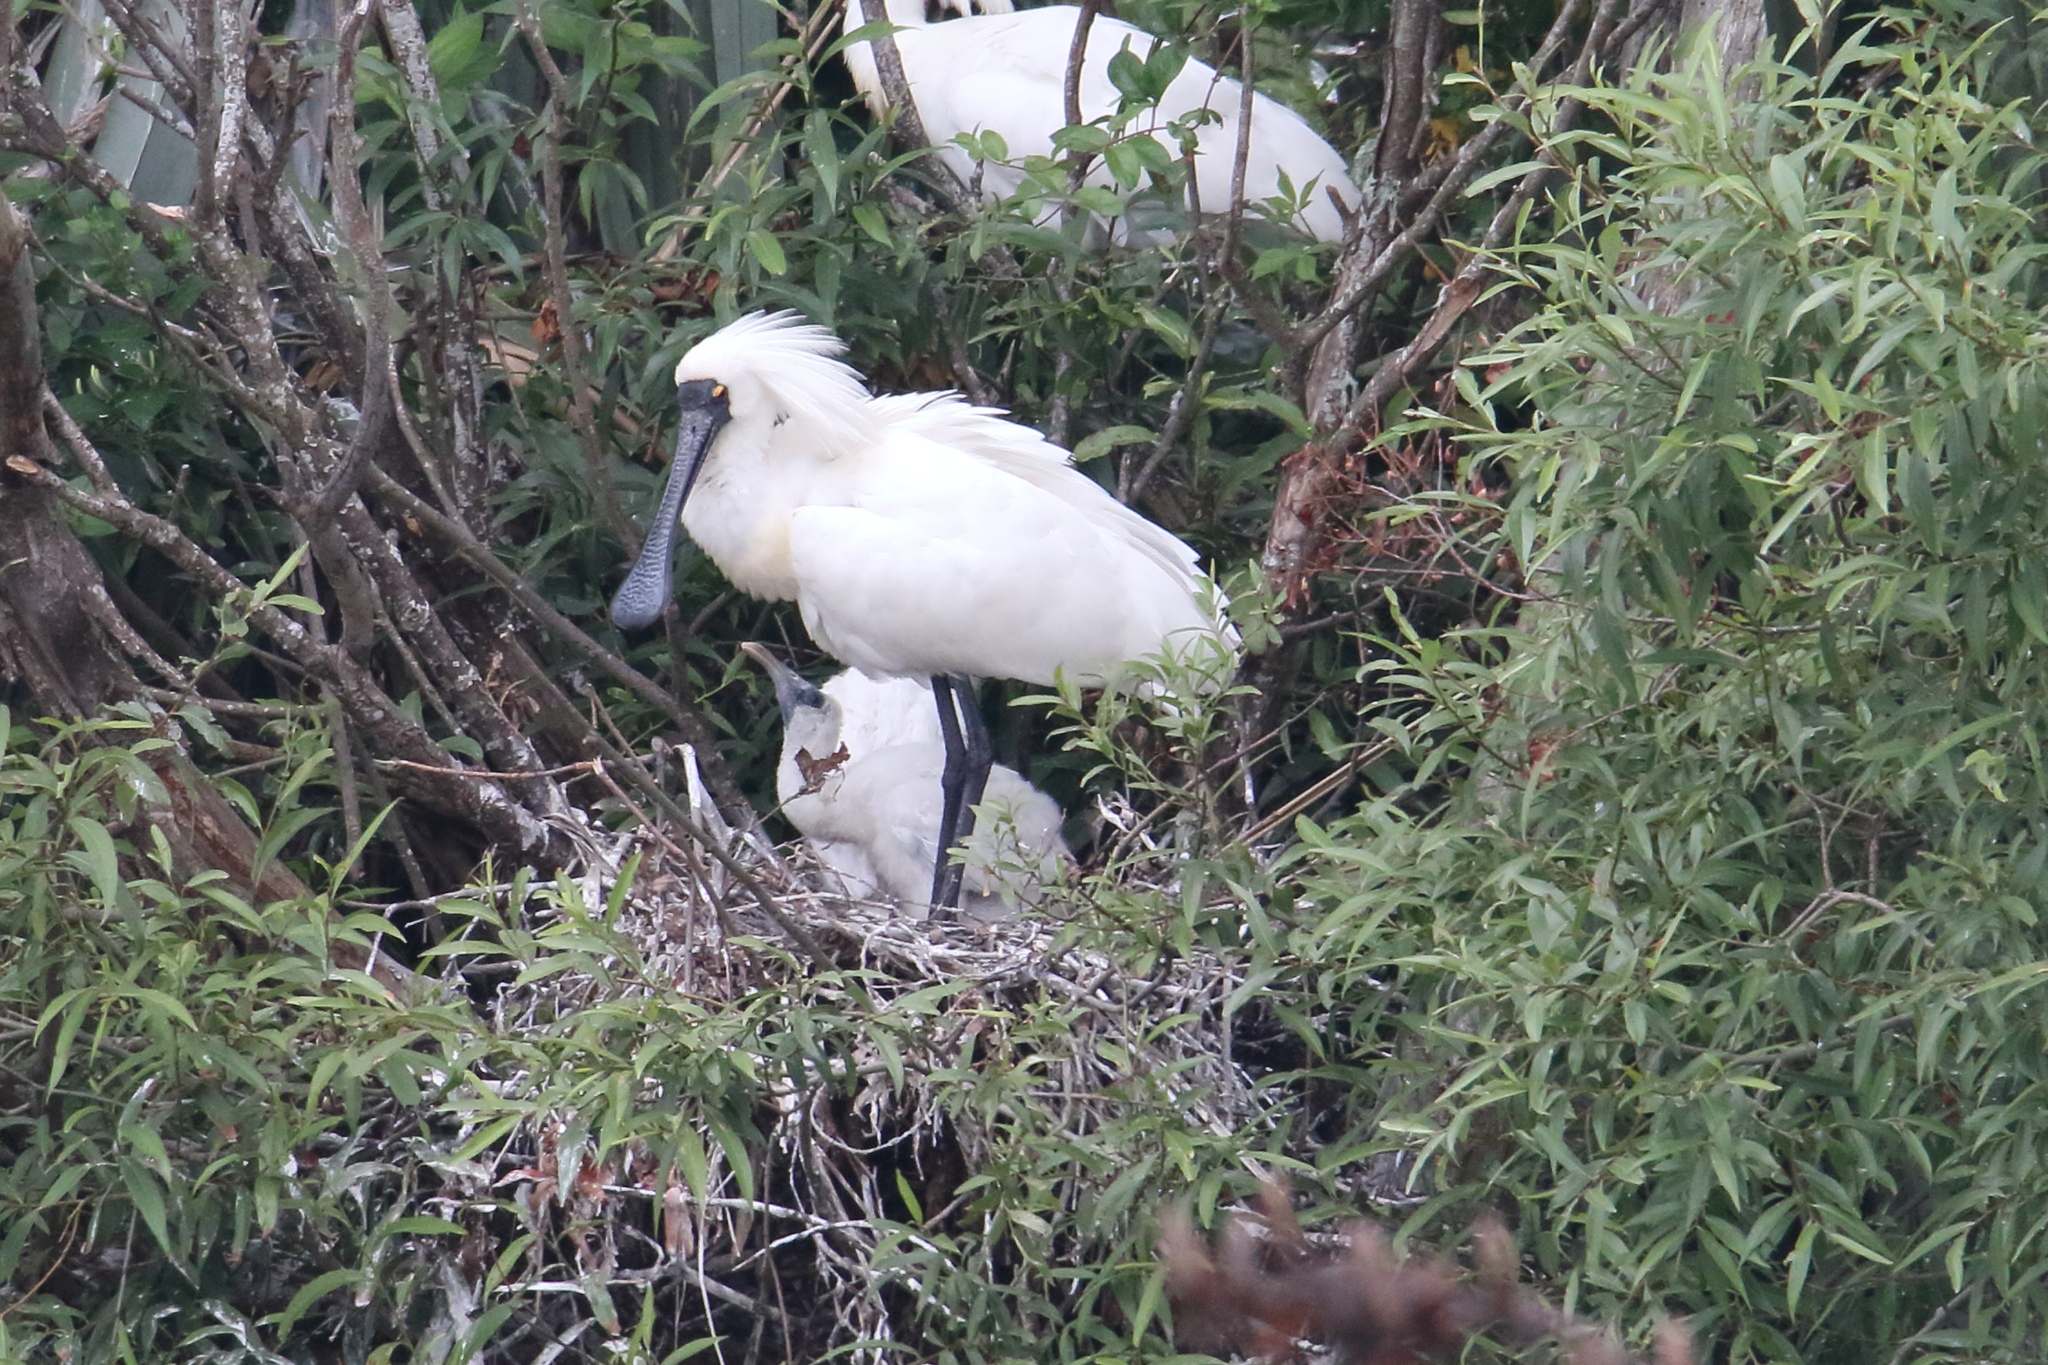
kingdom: Animalia
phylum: Chordata
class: Aves
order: Pelecaniformes
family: Threskiornithidae
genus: Platalea
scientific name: Platalea regia
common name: Royal spoonbill
